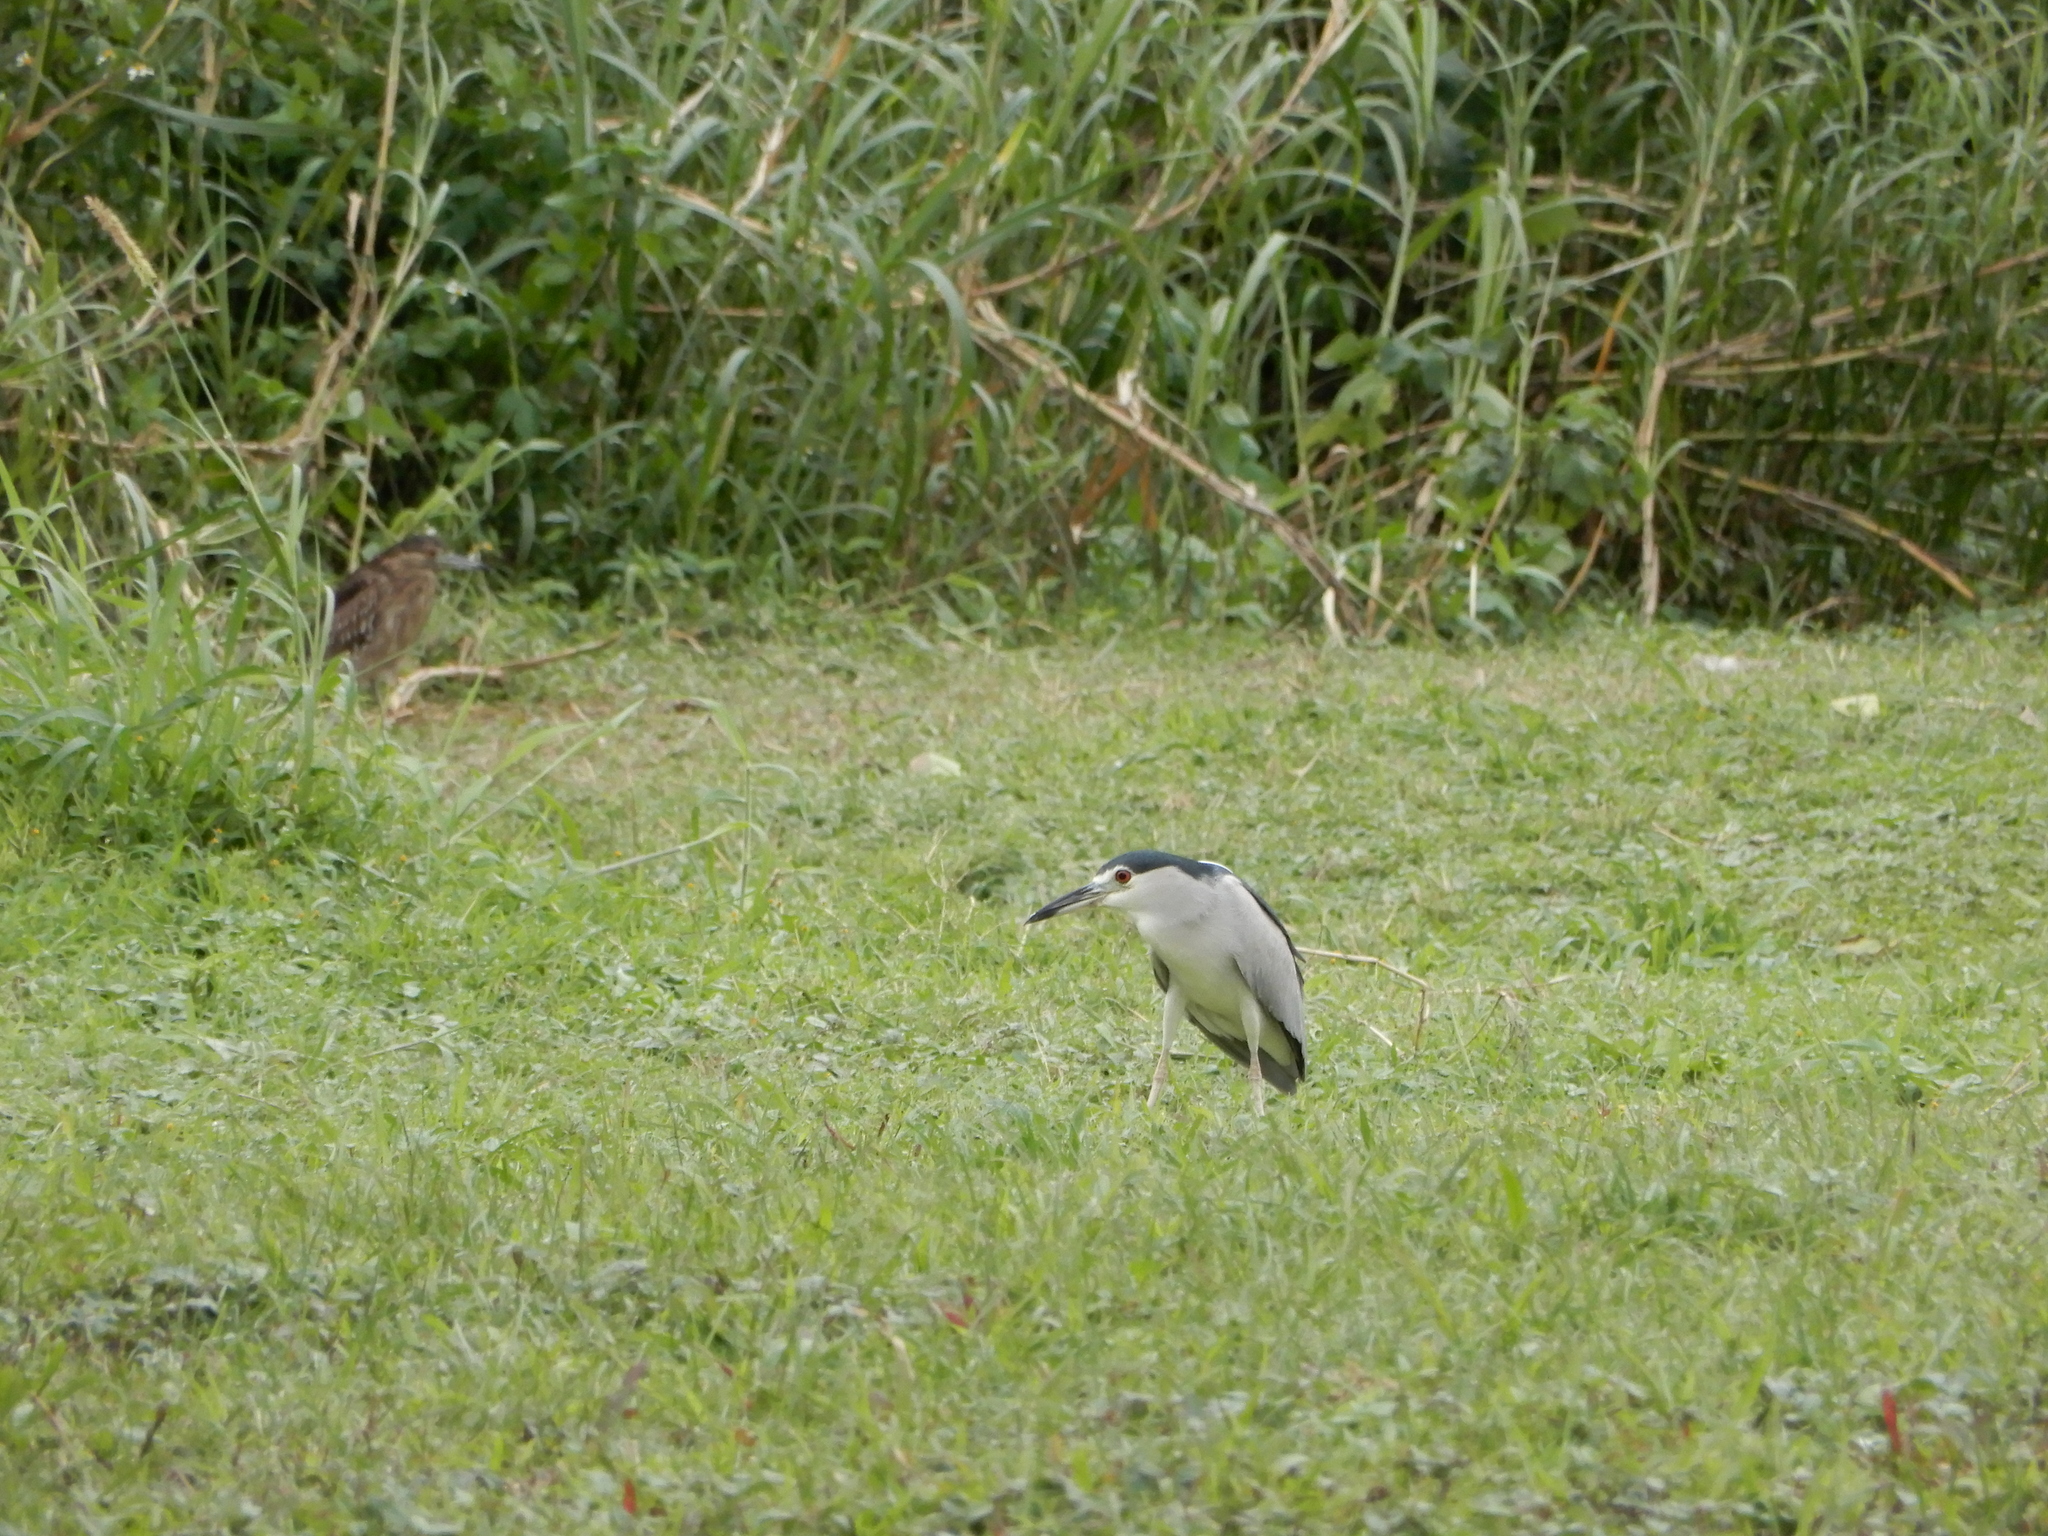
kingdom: Animalia
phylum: Chordata
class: Aves
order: Pelecaniformes
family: Ardeidae
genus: Nycticorax
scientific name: Nycticorax nycticorax
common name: Black-crowned night heron
